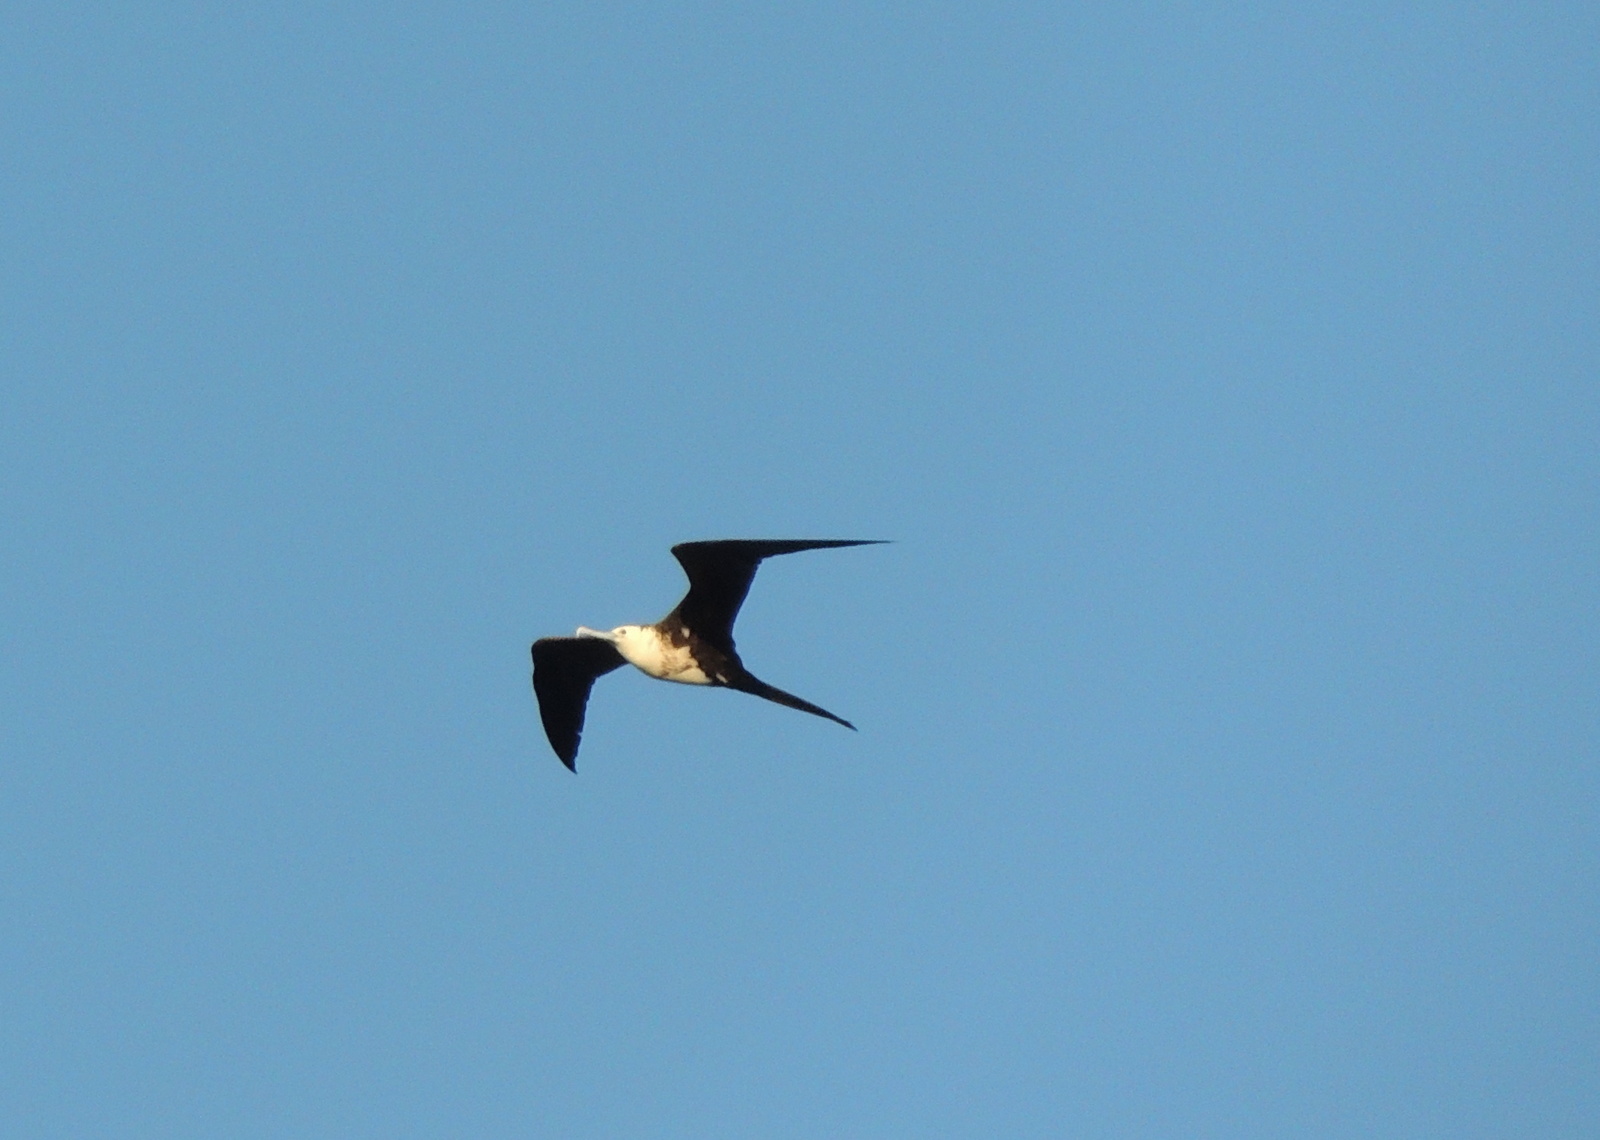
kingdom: Animalia
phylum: Chordata
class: Aves
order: Suliformes
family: Fregatidae
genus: Fregata
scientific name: Fregata magnificens
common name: Magnificent frigatebird
